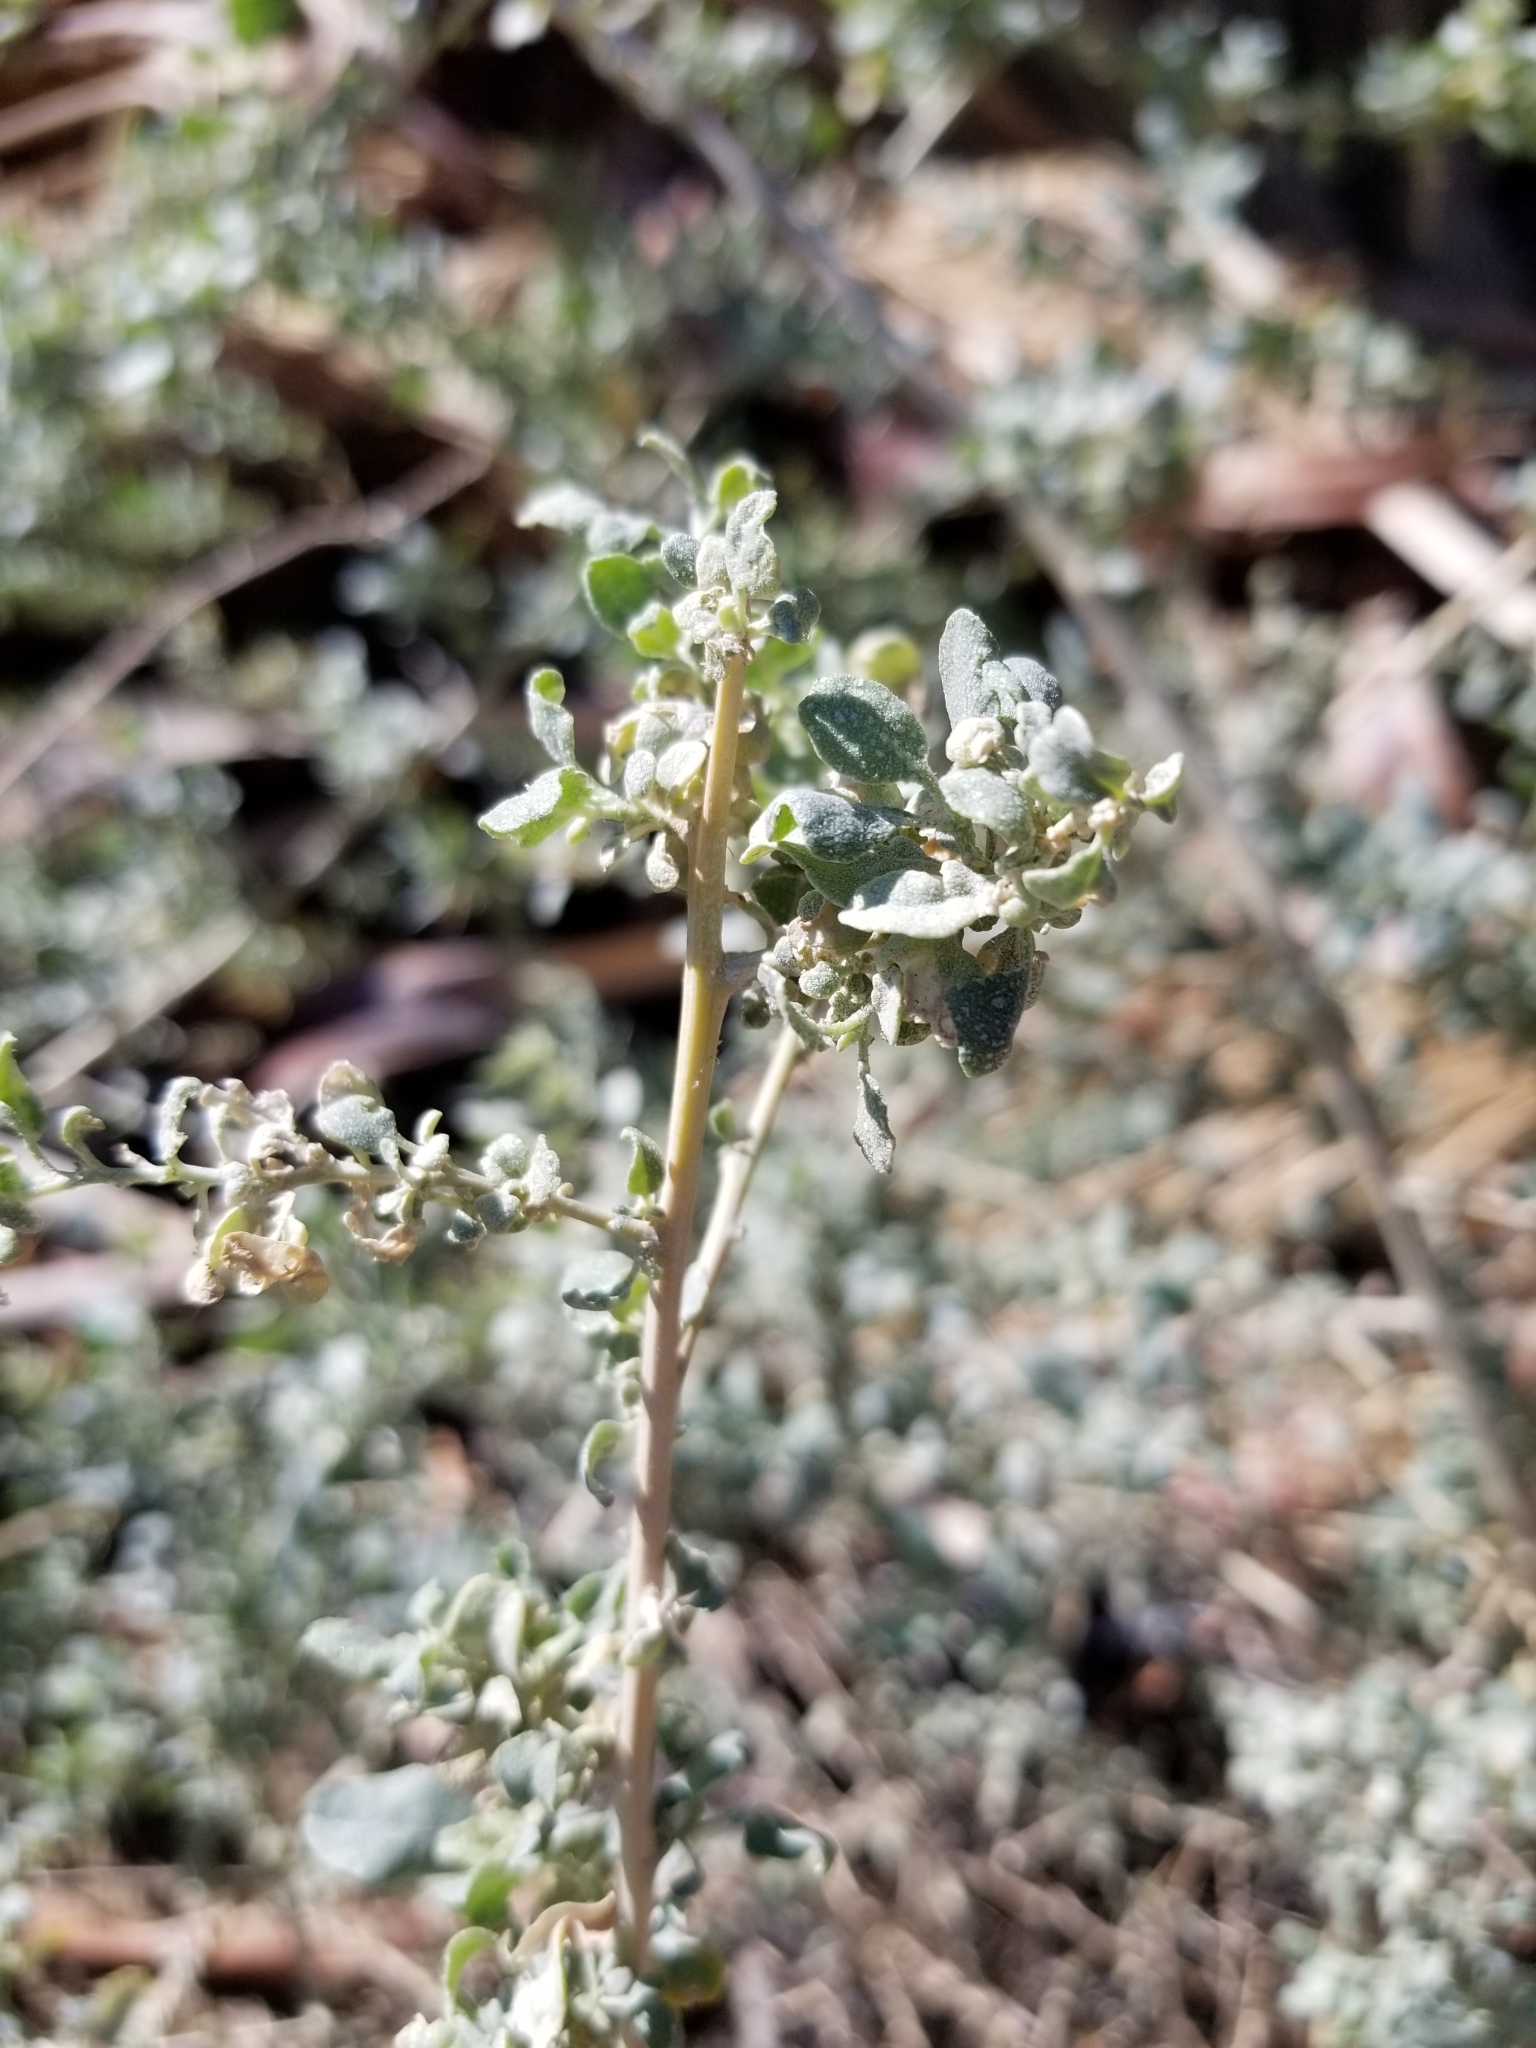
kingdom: Plantae
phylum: Tracheophyta
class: Magnoliopsida
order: Caryophyllales
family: Amaranthaceae
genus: Atriplex
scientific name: Atriplex lentiformis
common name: Big saltbush
